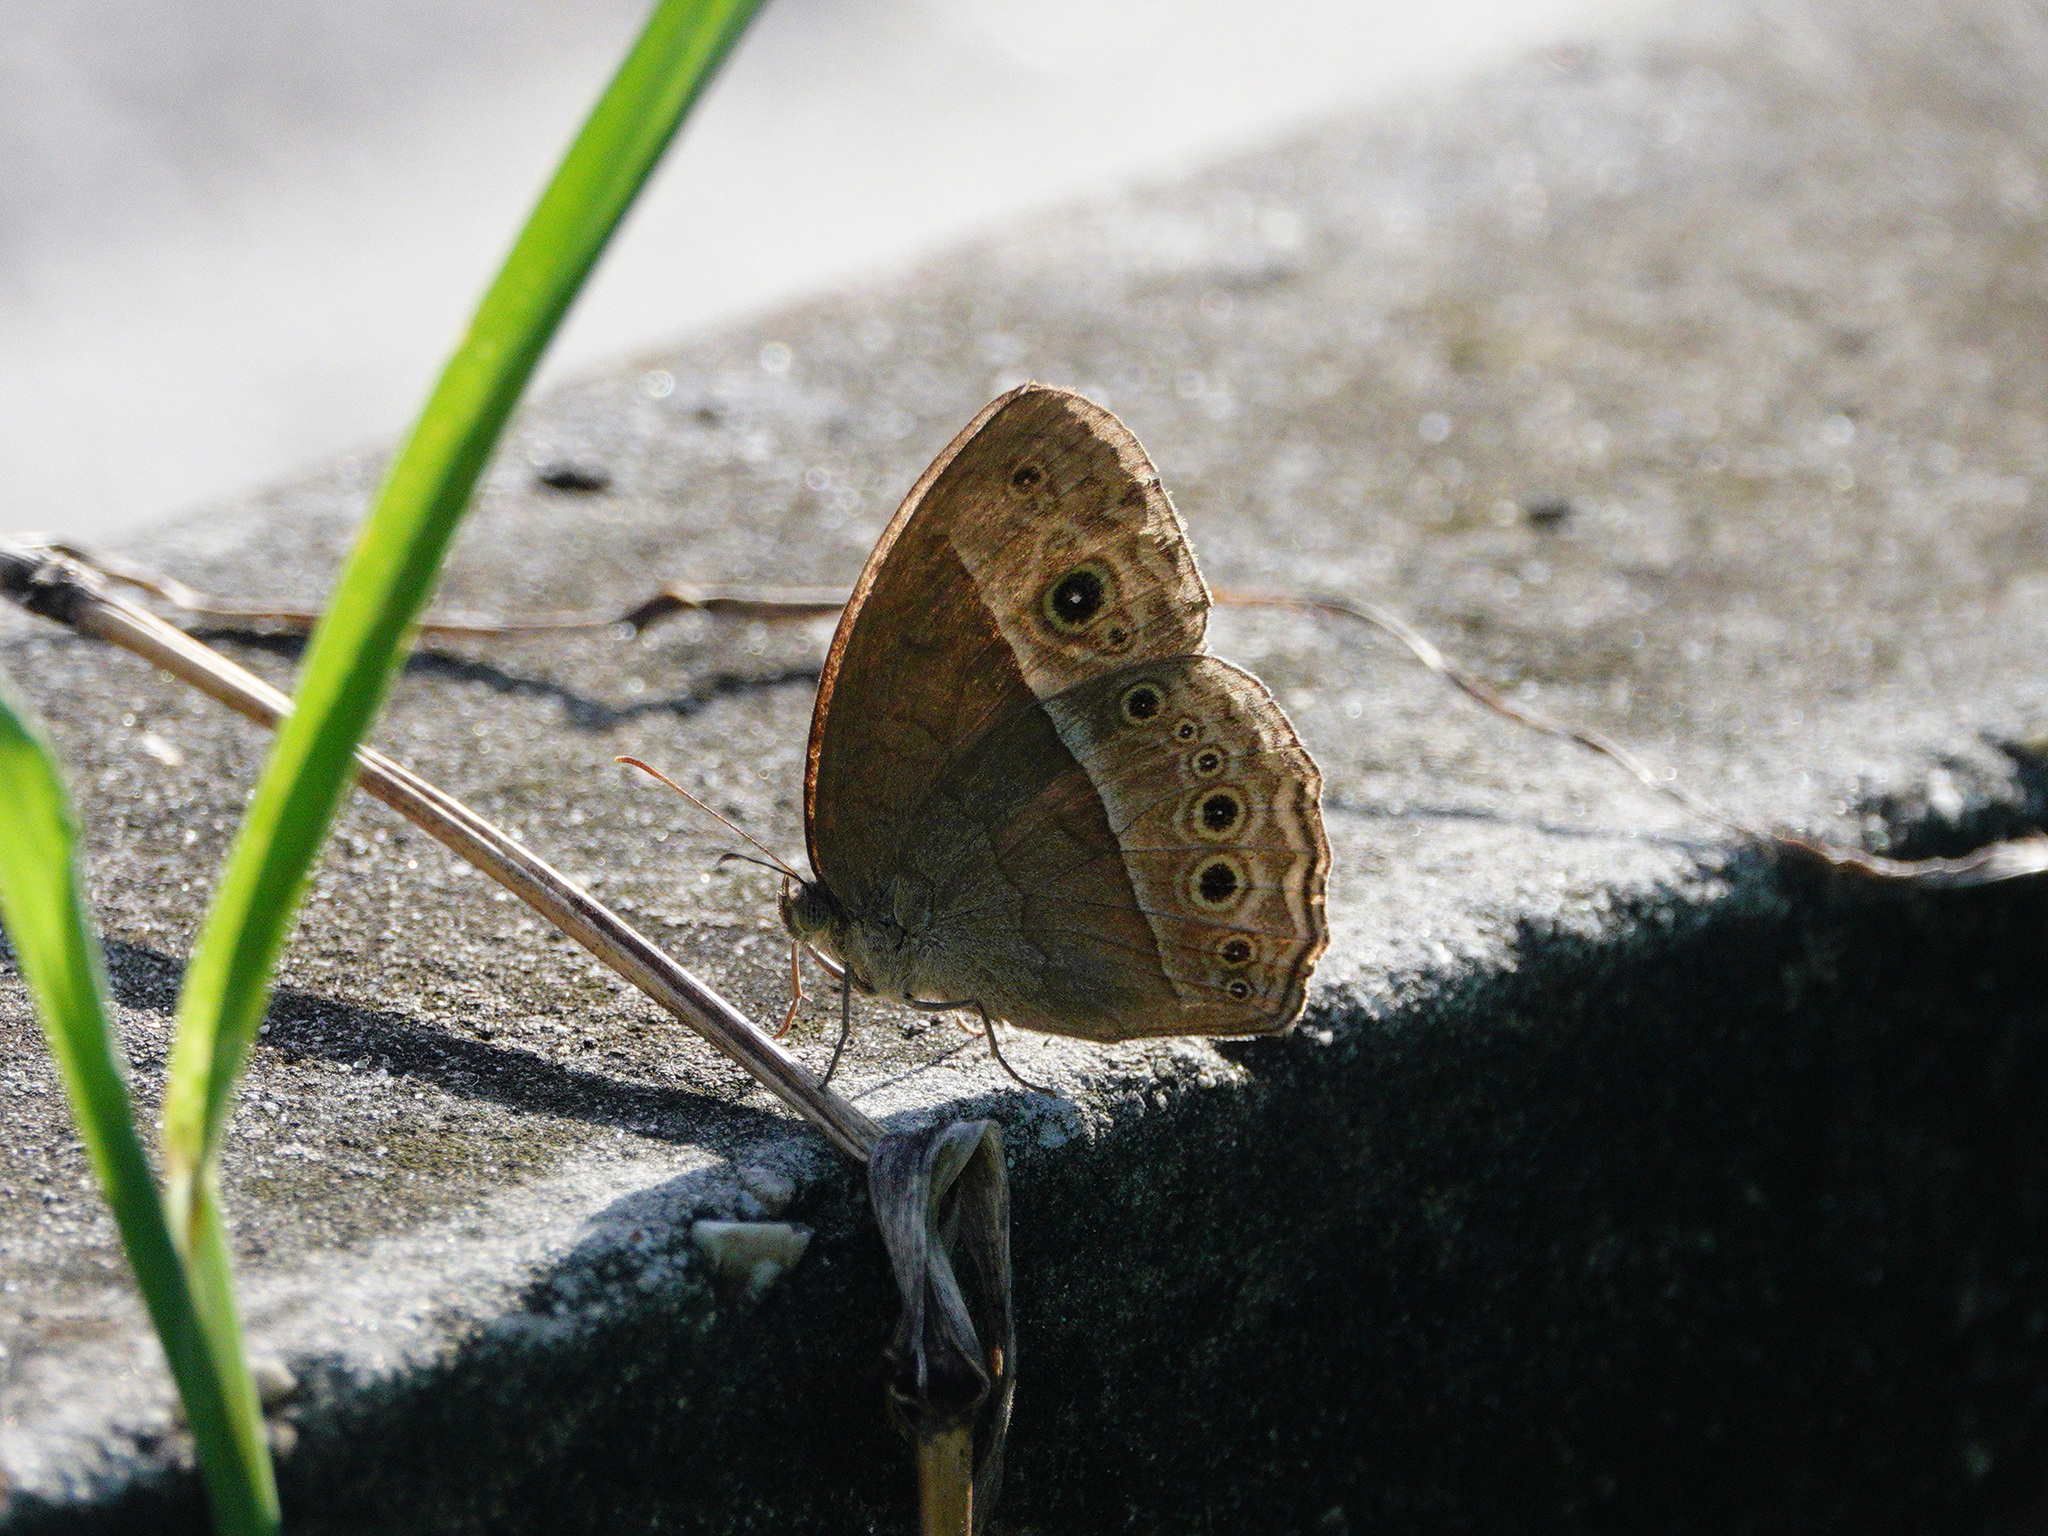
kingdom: Animalia
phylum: Arthropoda
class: Insecta
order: Lepidoptera
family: Nymphalidae
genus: Mycalesis
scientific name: Mycalesis perseoides
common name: Burmese bushbrown
